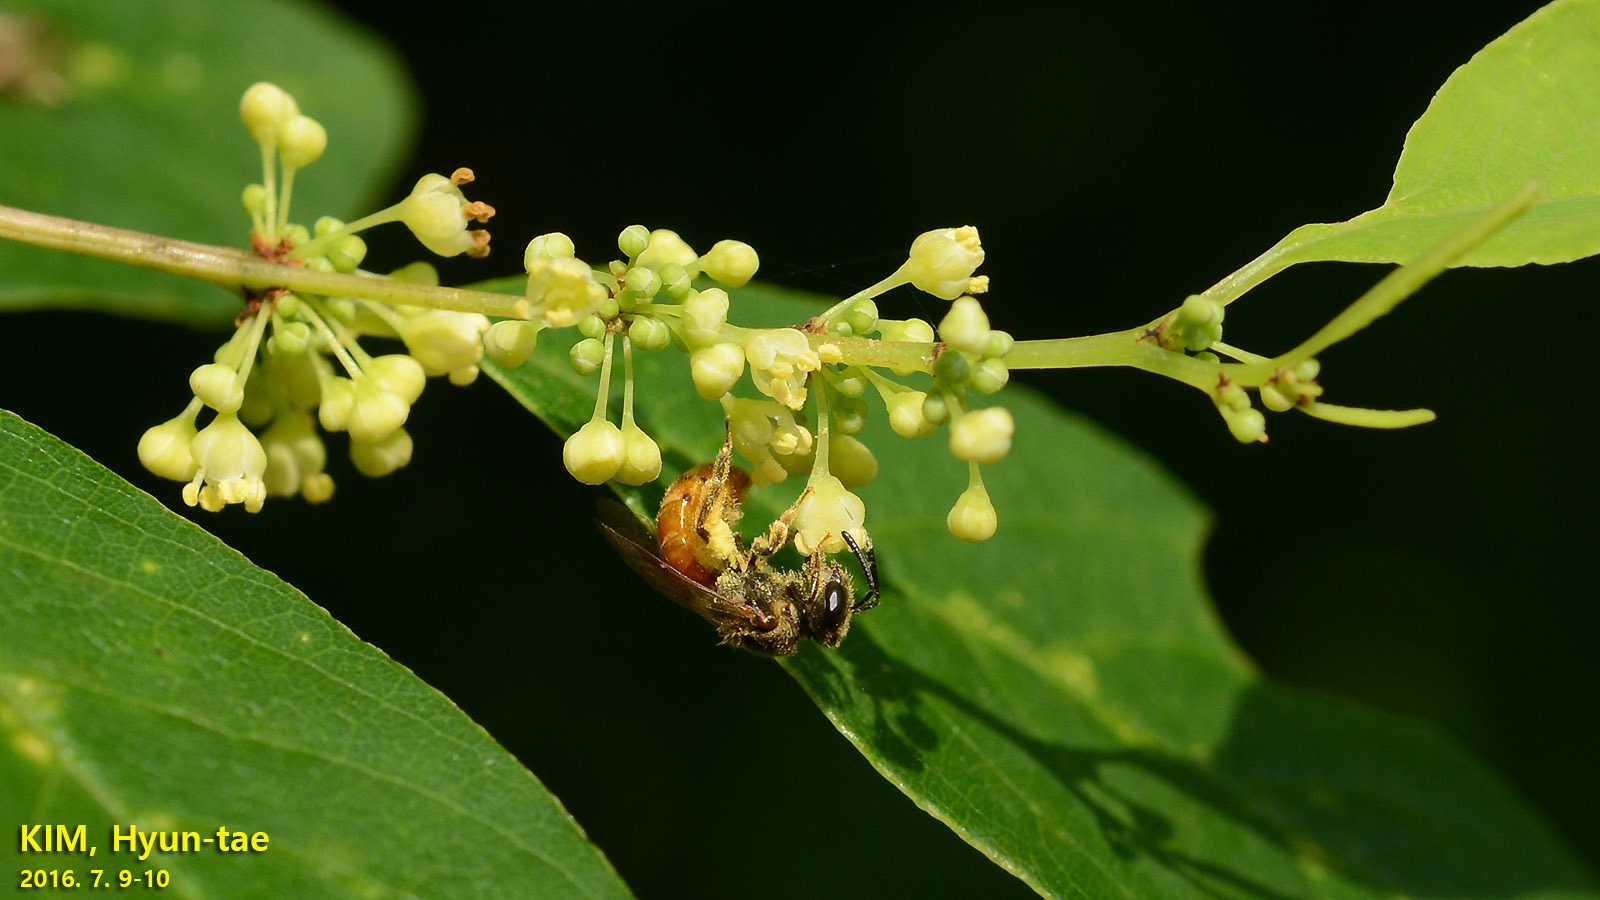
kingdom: Animalia
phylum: Arthropoda
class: Insecta
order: Hymenoptera
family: Halictidae
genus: Lasioglossum
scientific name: Lasioglossum
